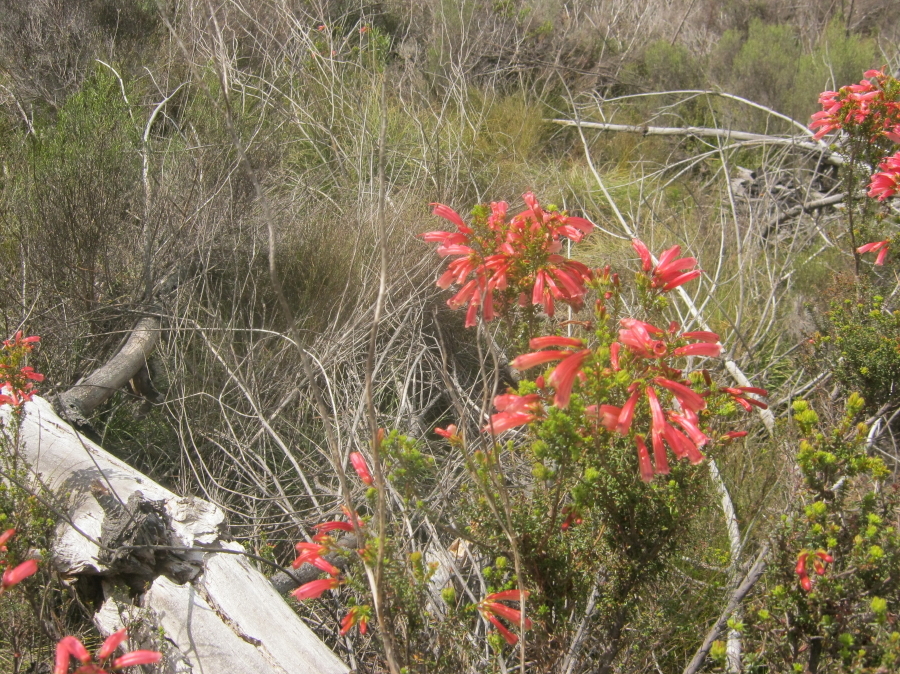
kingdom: Plantae
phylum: Tracheophyta
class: Magnoliopsida
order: Ericales
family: Ericaceae
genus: Erica
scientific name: Erica glandulosa
